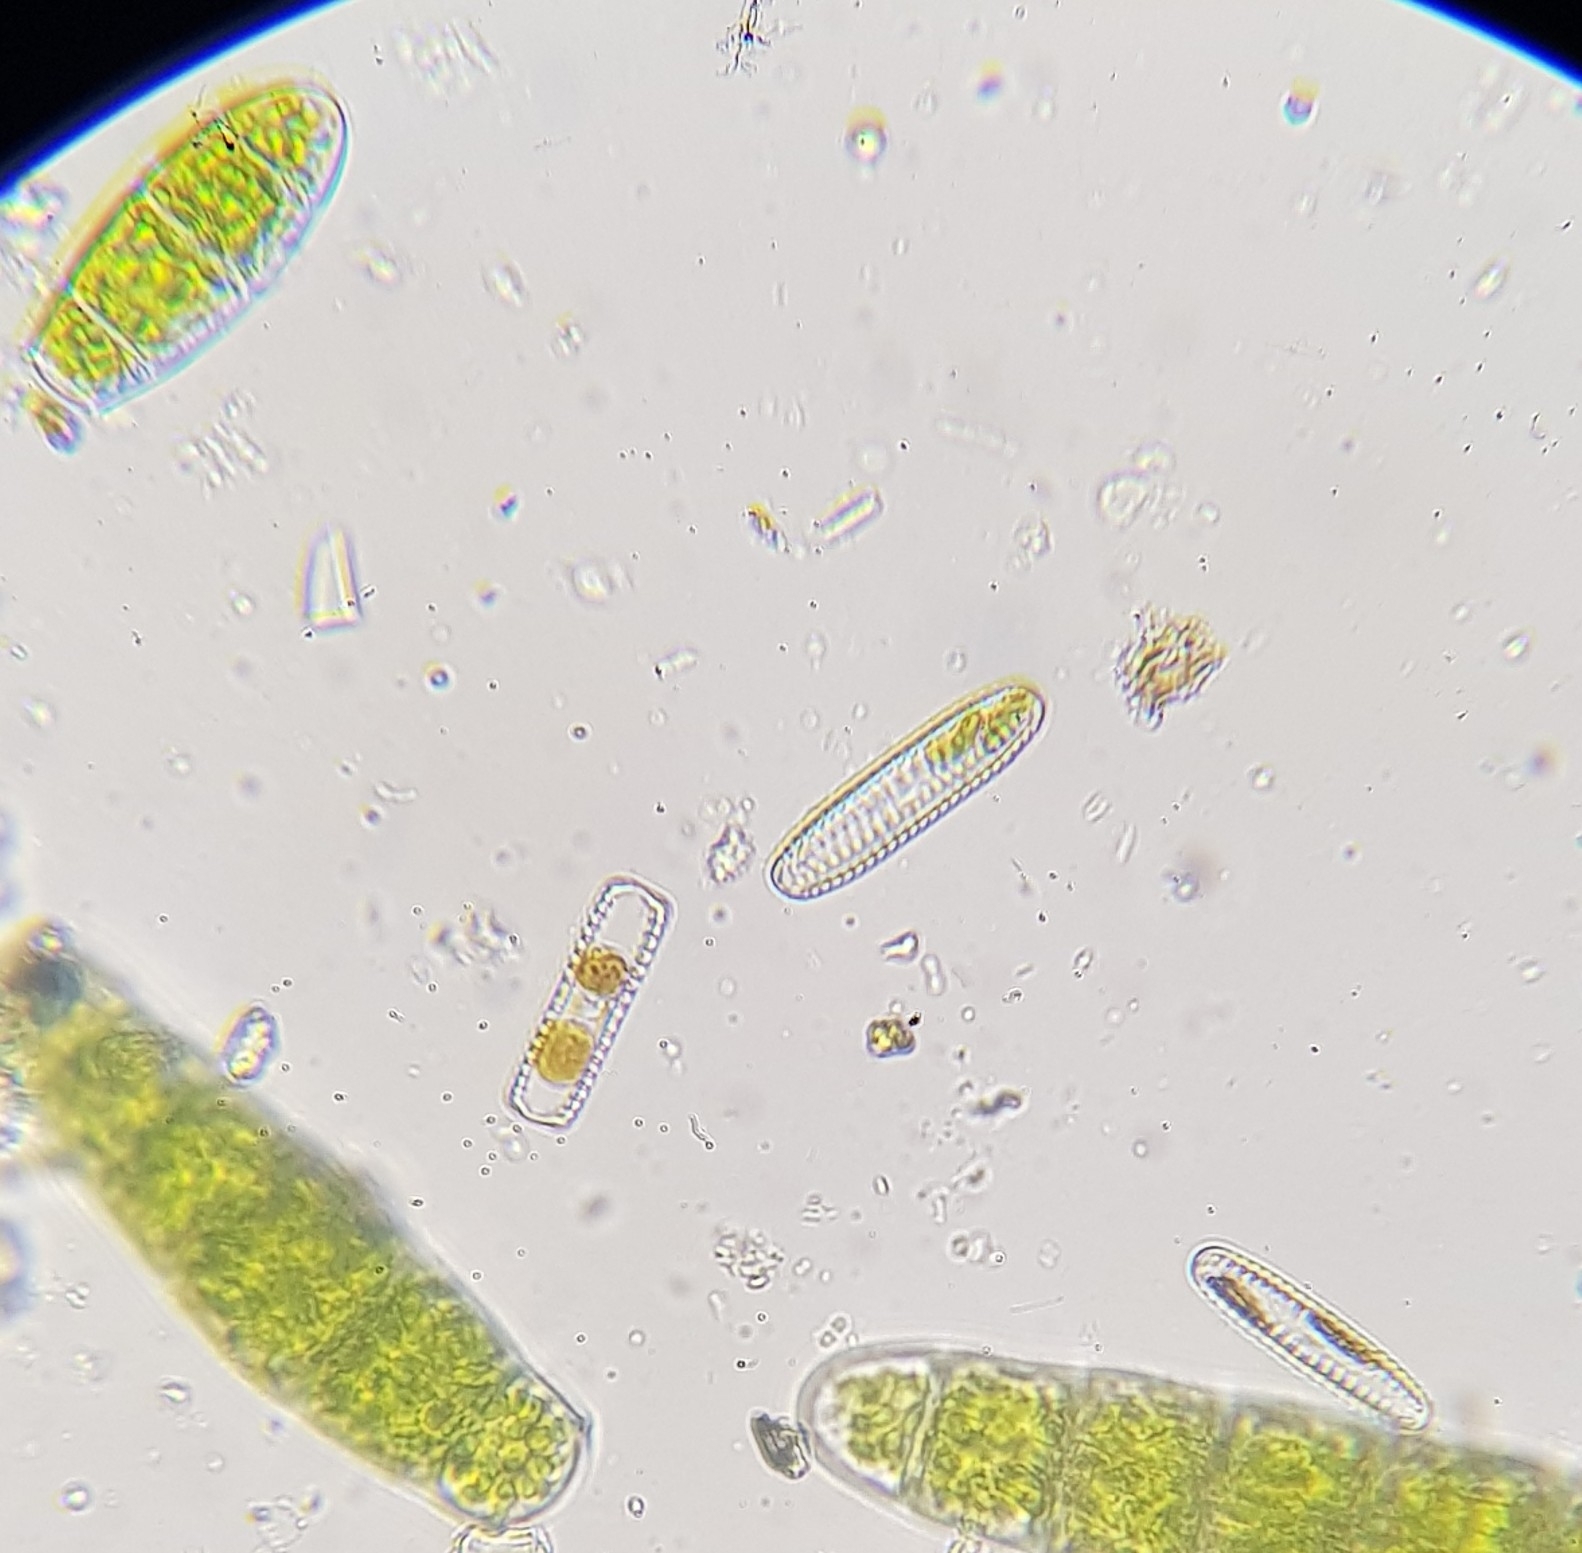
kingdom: Plantae
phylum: Bryophyta
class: Bryopsida
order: Orthotrichales
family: Orthotrichaceae
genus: Zygodon
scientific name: Zygodon conoideus
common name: Lesser yoke-moss
